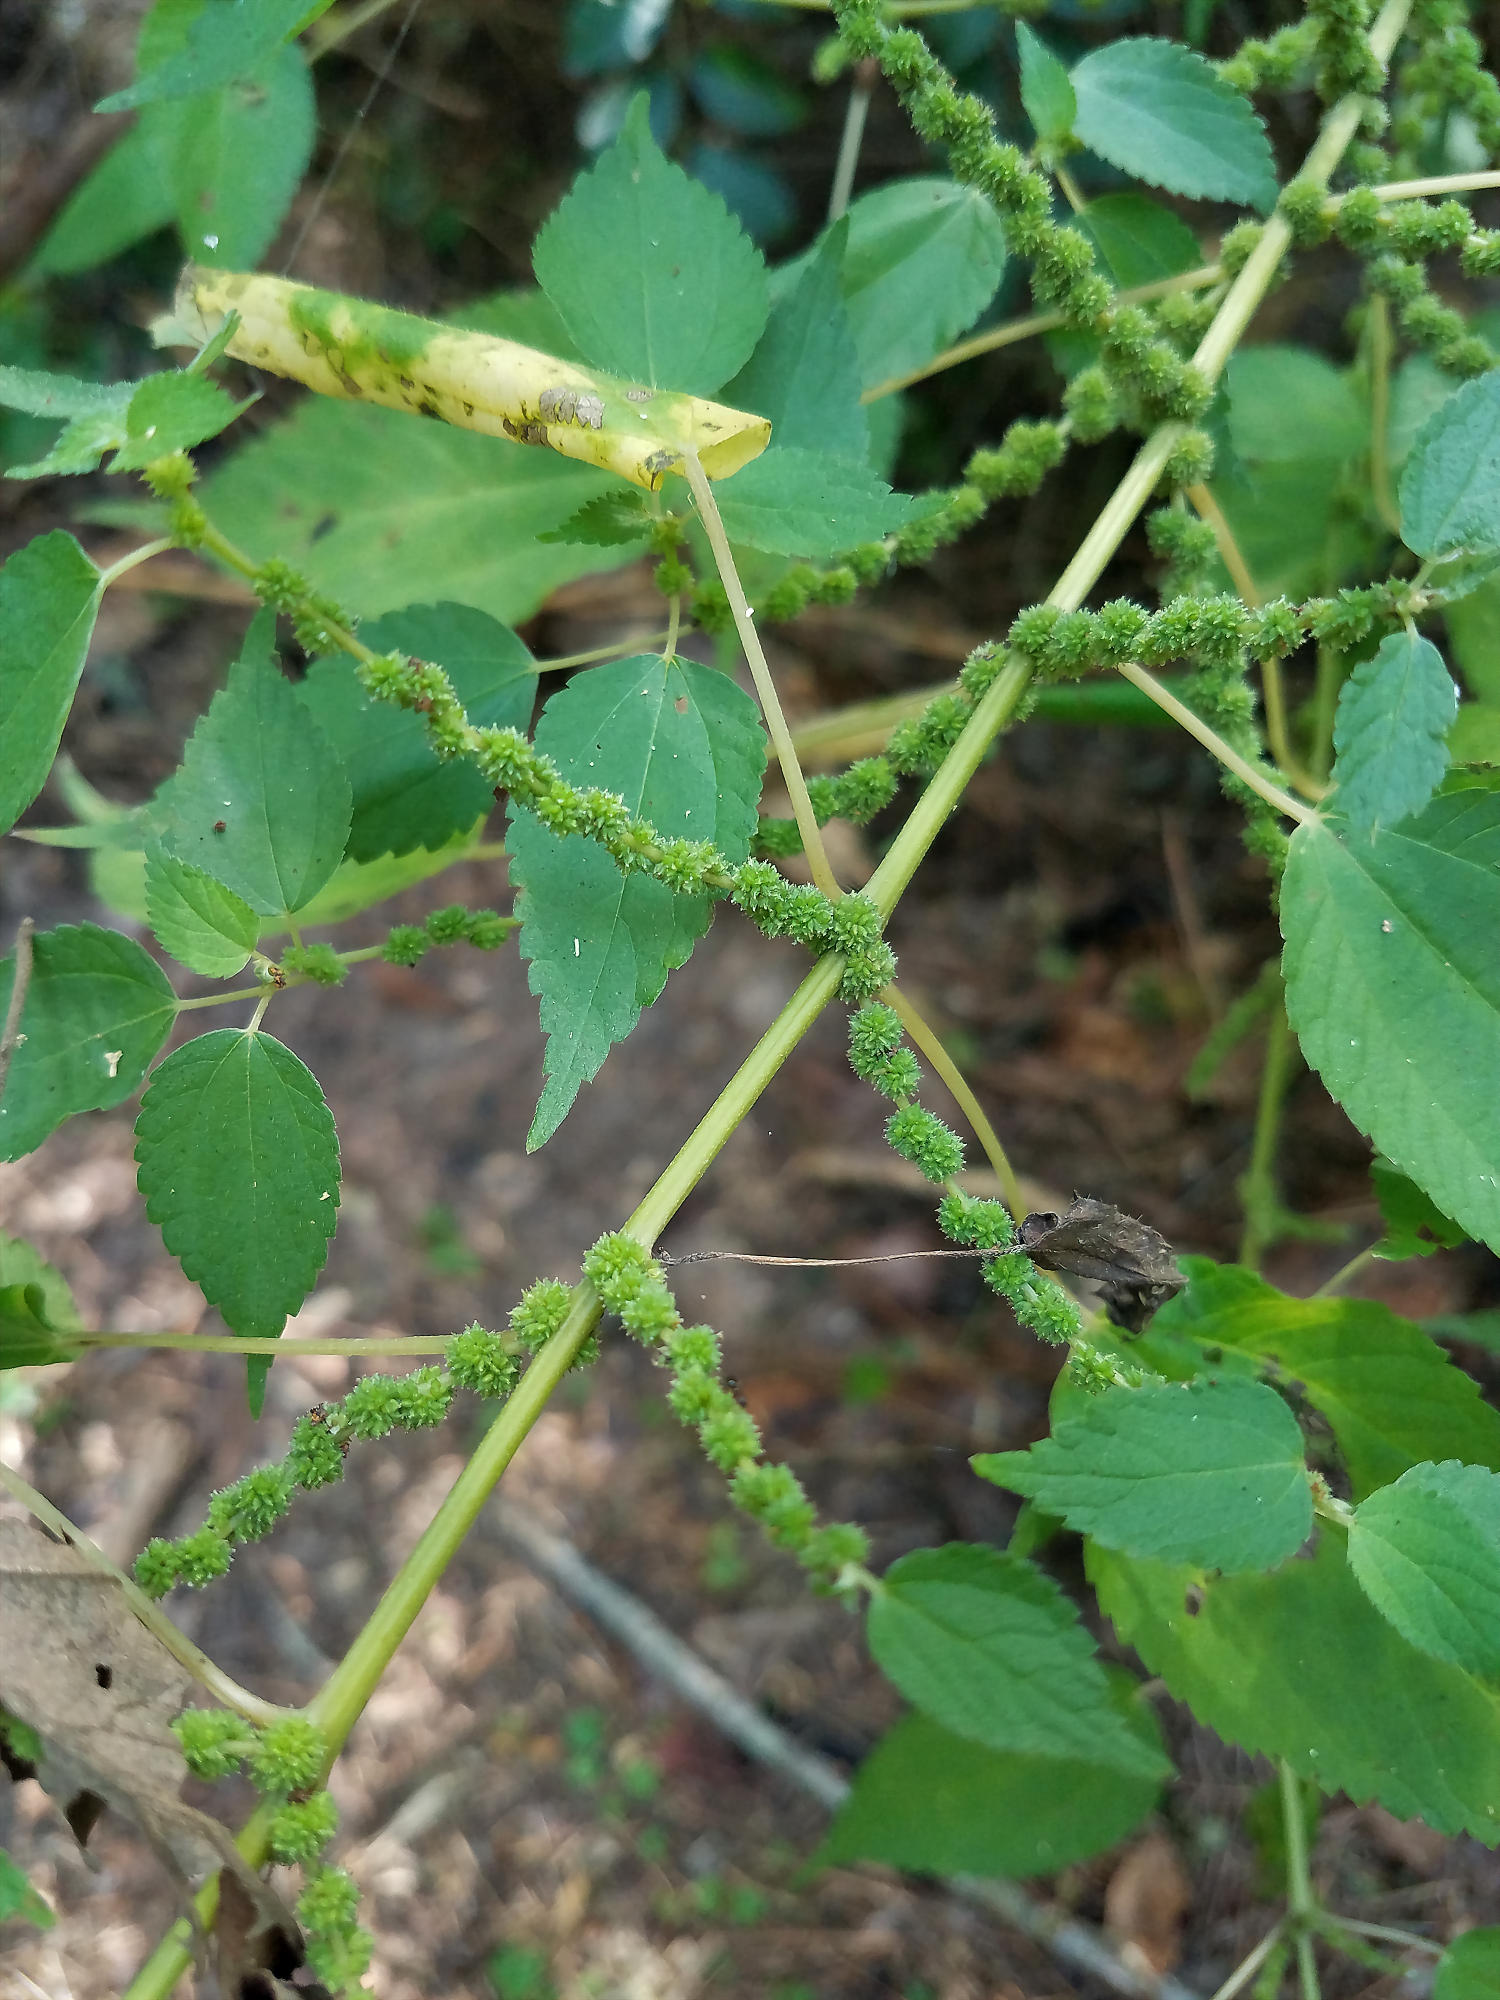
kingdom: Plantae
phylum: Tracheophyta
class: Magnoliopsida
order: Rosales
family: Urticaceae
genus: Boehmeria
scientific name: Boehmeria cylindrica
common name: Bog-hemp
